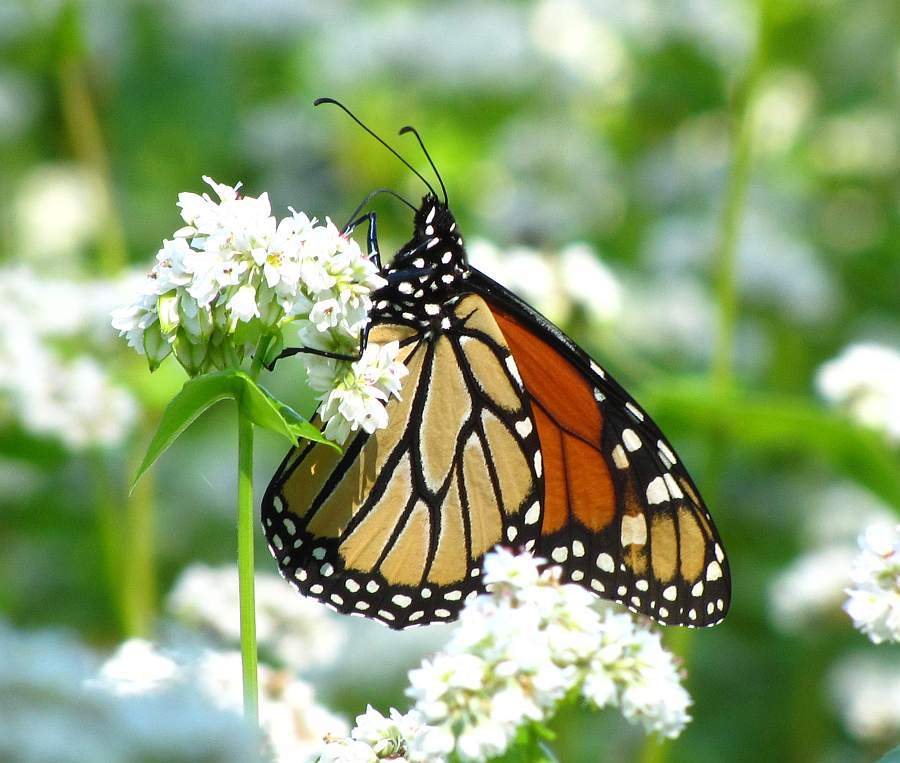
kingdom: Animalia
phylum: Arthropoda
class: Insecta
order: Lepidoptera
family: Nymphalidae
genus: Danaus
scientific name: Danaus plexippus
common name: Monarch
